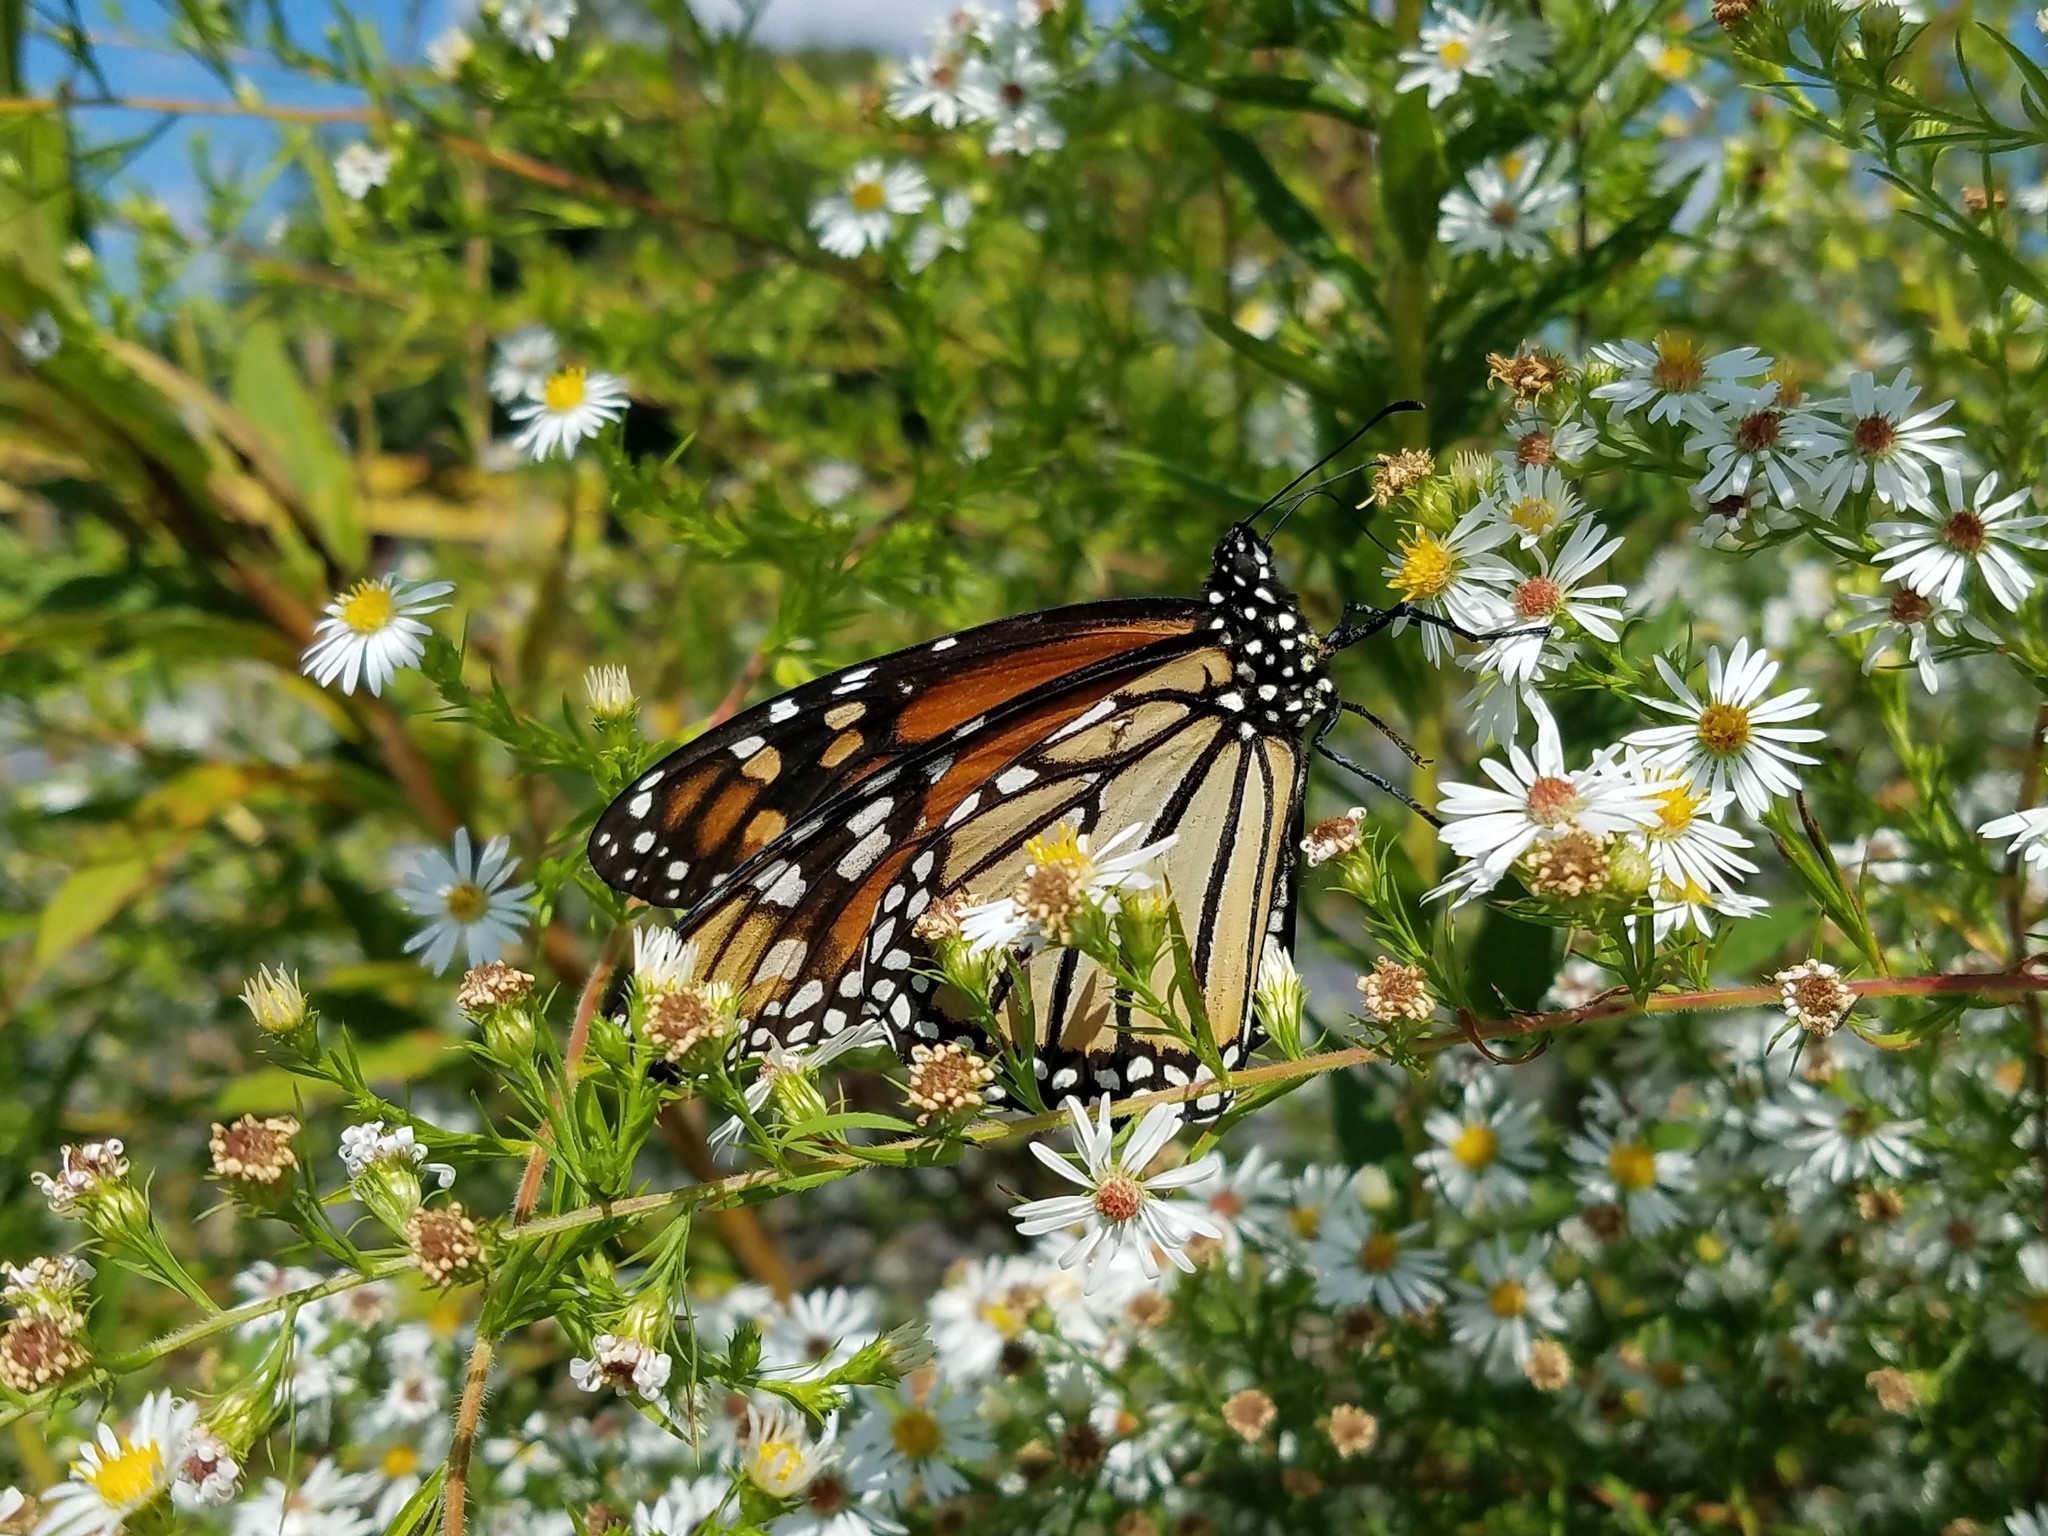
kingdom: Animalia
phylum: Arthropoda
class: Insecta
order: Lepidoptera
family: Nymphalidae
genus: Danaus
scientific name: Danaus plexippus
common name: Monarch
